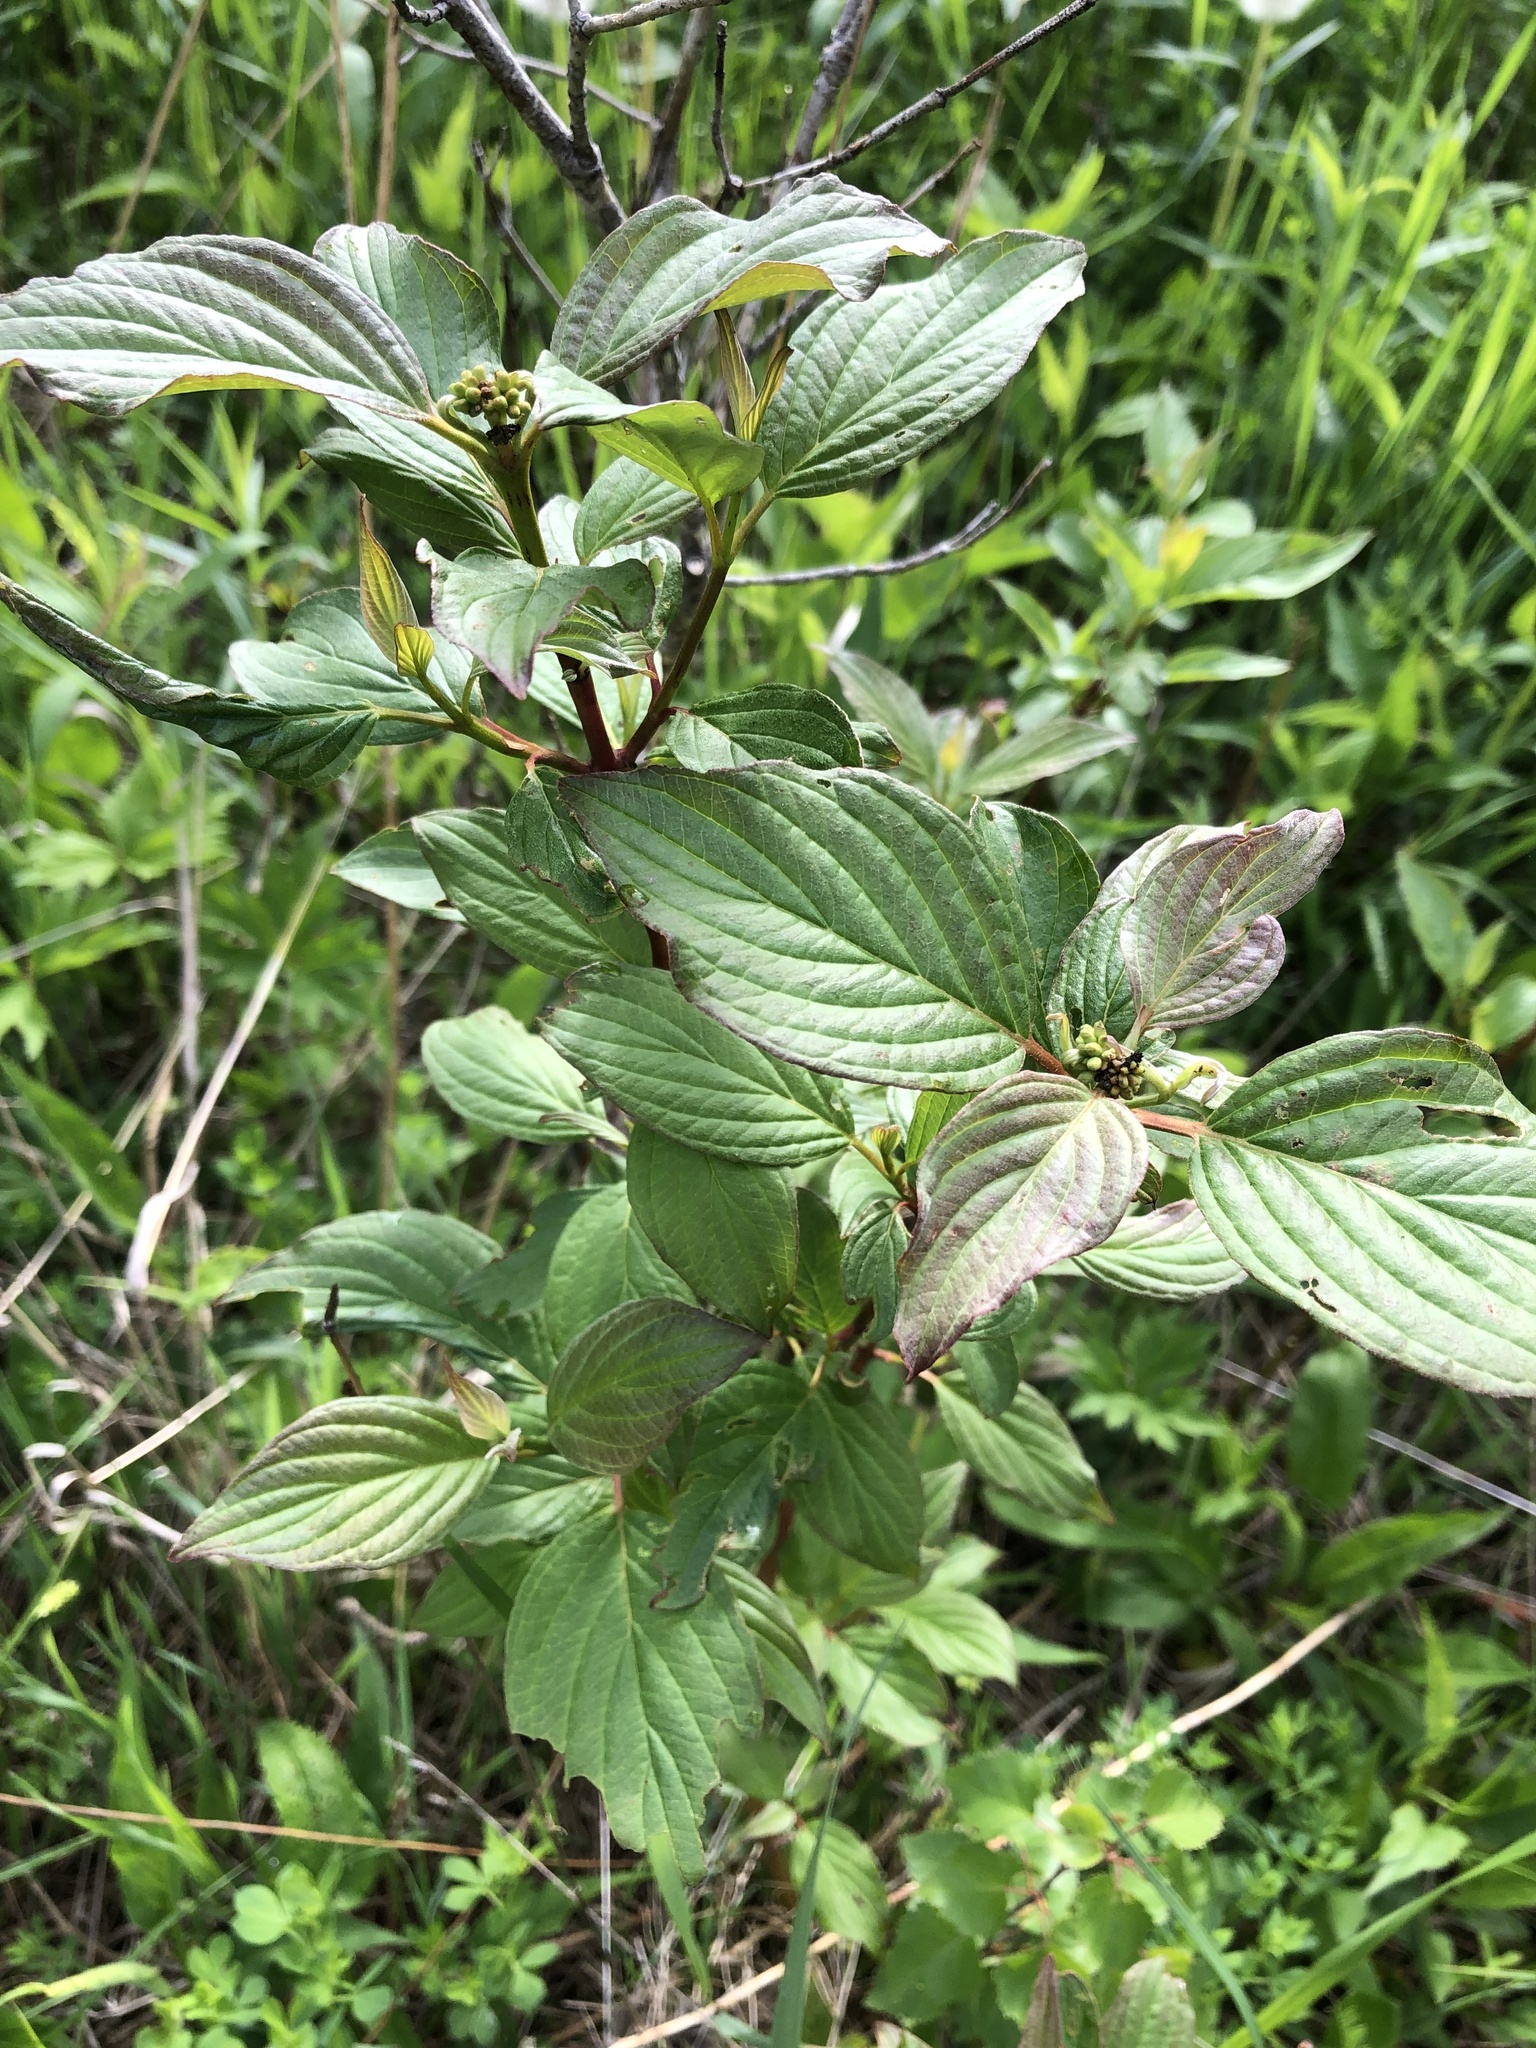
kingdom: Plantae
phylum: Tracheophyta
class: Magnoliopsida
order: Cornales
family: Cornaceae
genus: Cornus
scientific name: Cornus sericea
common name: Red-osier dogwood
